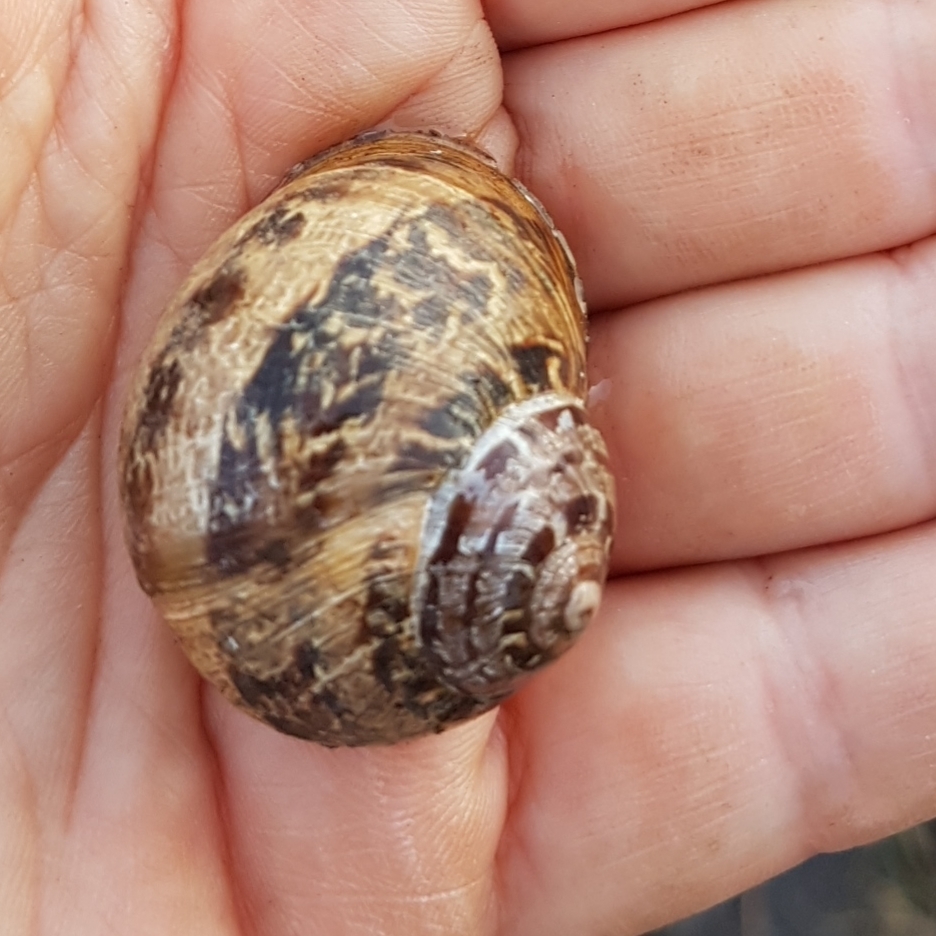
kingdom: Animalia
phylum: Mollusca
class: Gastropoda
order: Stylommatophora
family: Helicidae
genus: Cornu
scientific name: Cornu aspersum
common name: Brown garden snail
